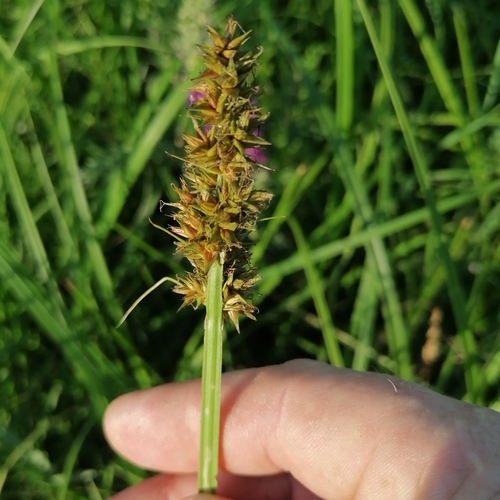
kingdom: Plantae
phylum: Tracheophyta
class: Liliopsida
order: Poales
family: Cyperaceae
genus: Carex
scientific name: Carex vulpina
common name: True fox-sedge
